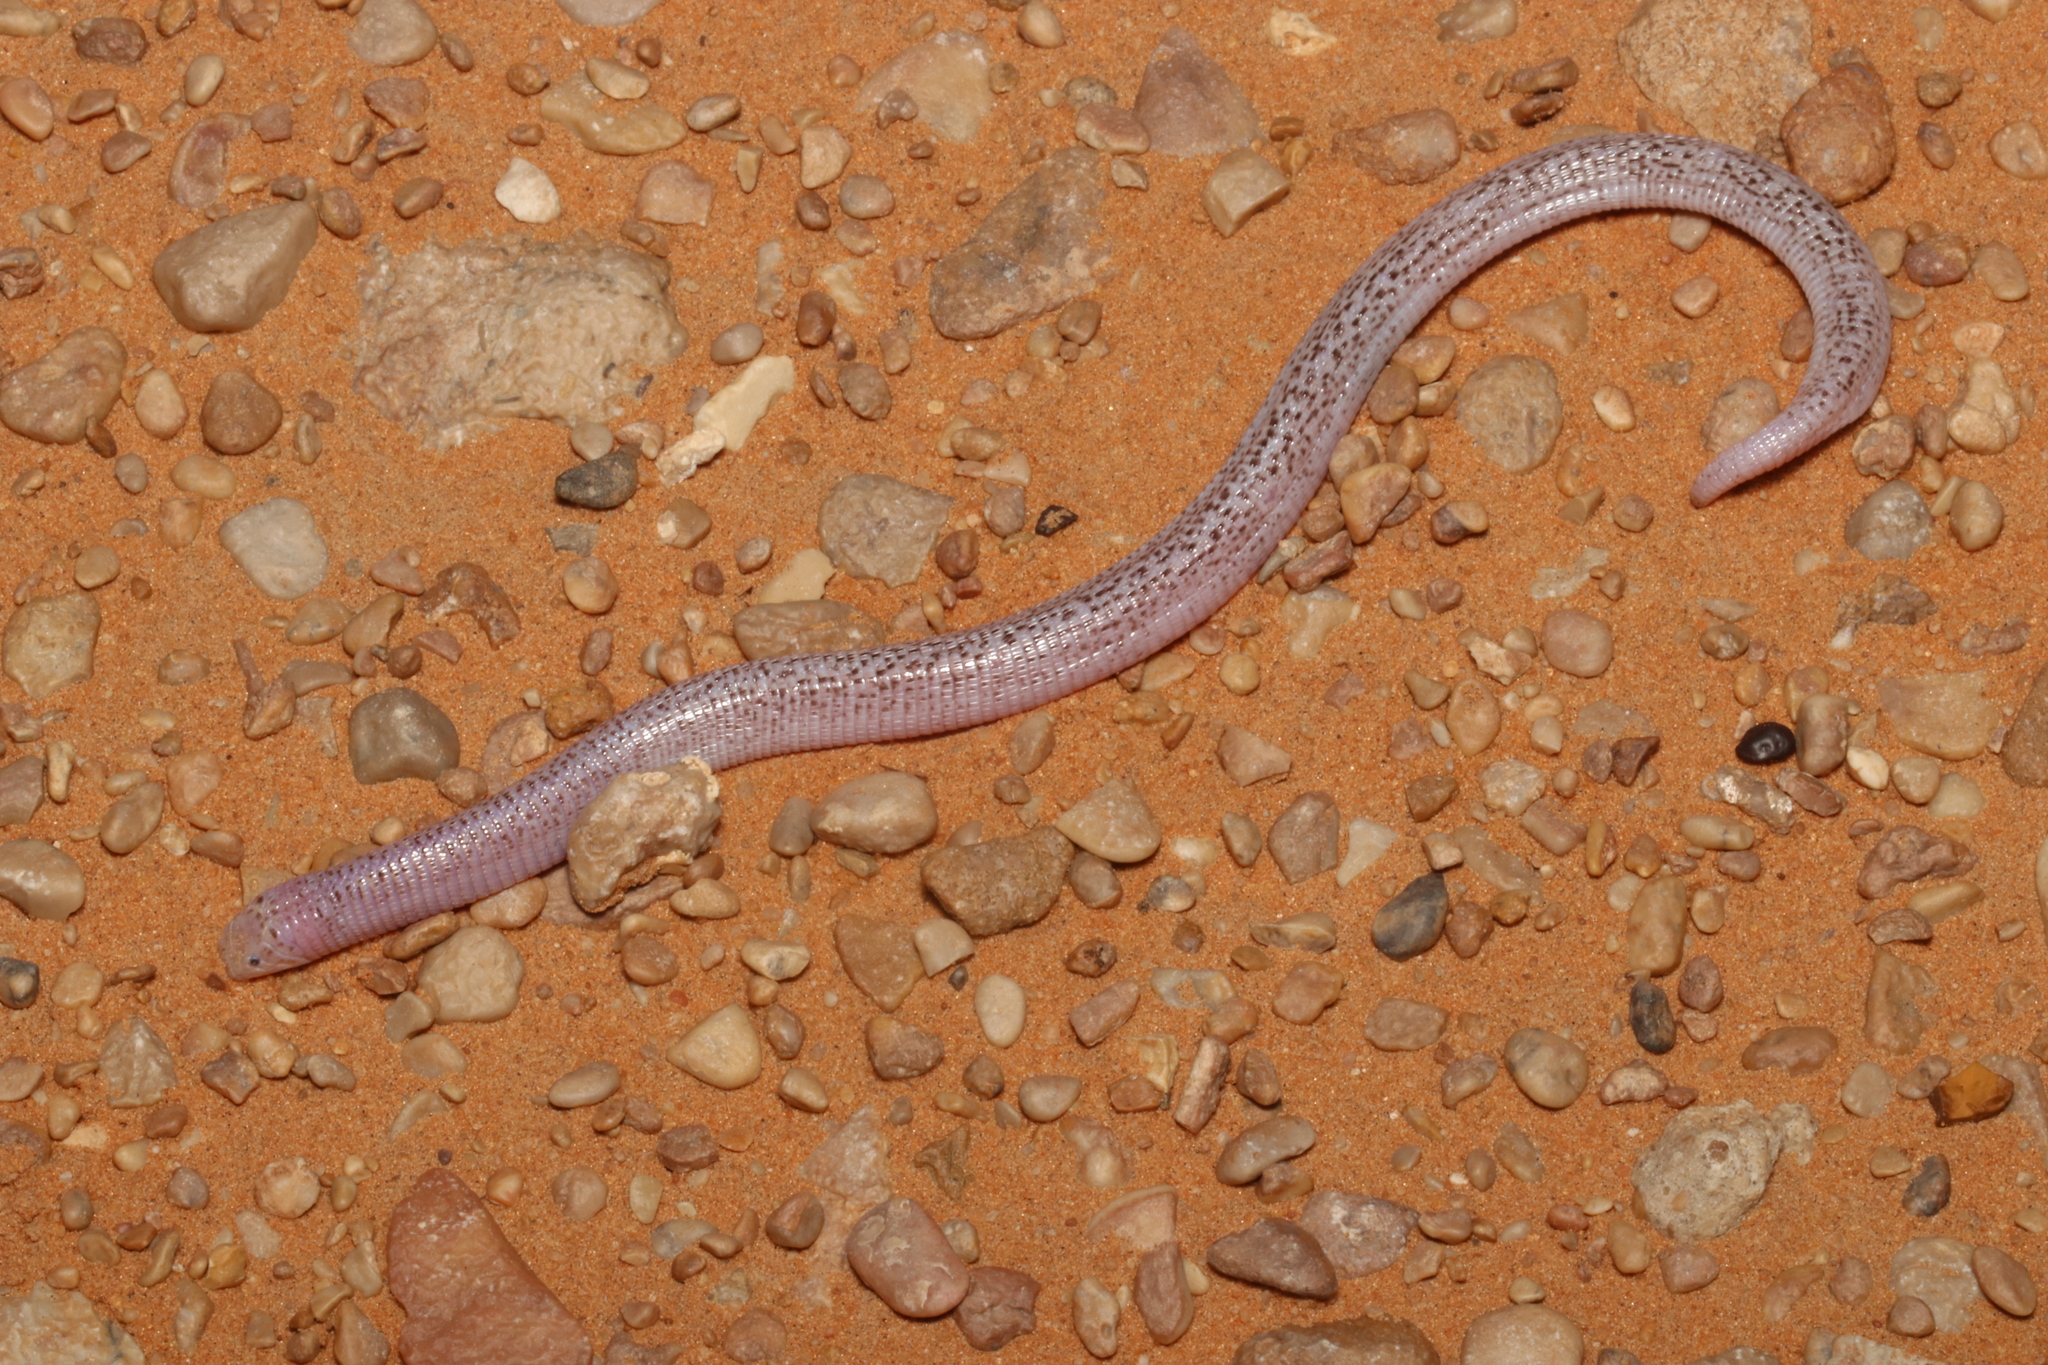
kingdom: Animalia
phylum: Chordata
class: Squamata
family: Trogonophidae
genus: Diplometopon
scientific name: Diplometopon zarudnyi
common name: Zarudnyi's worm lizard
